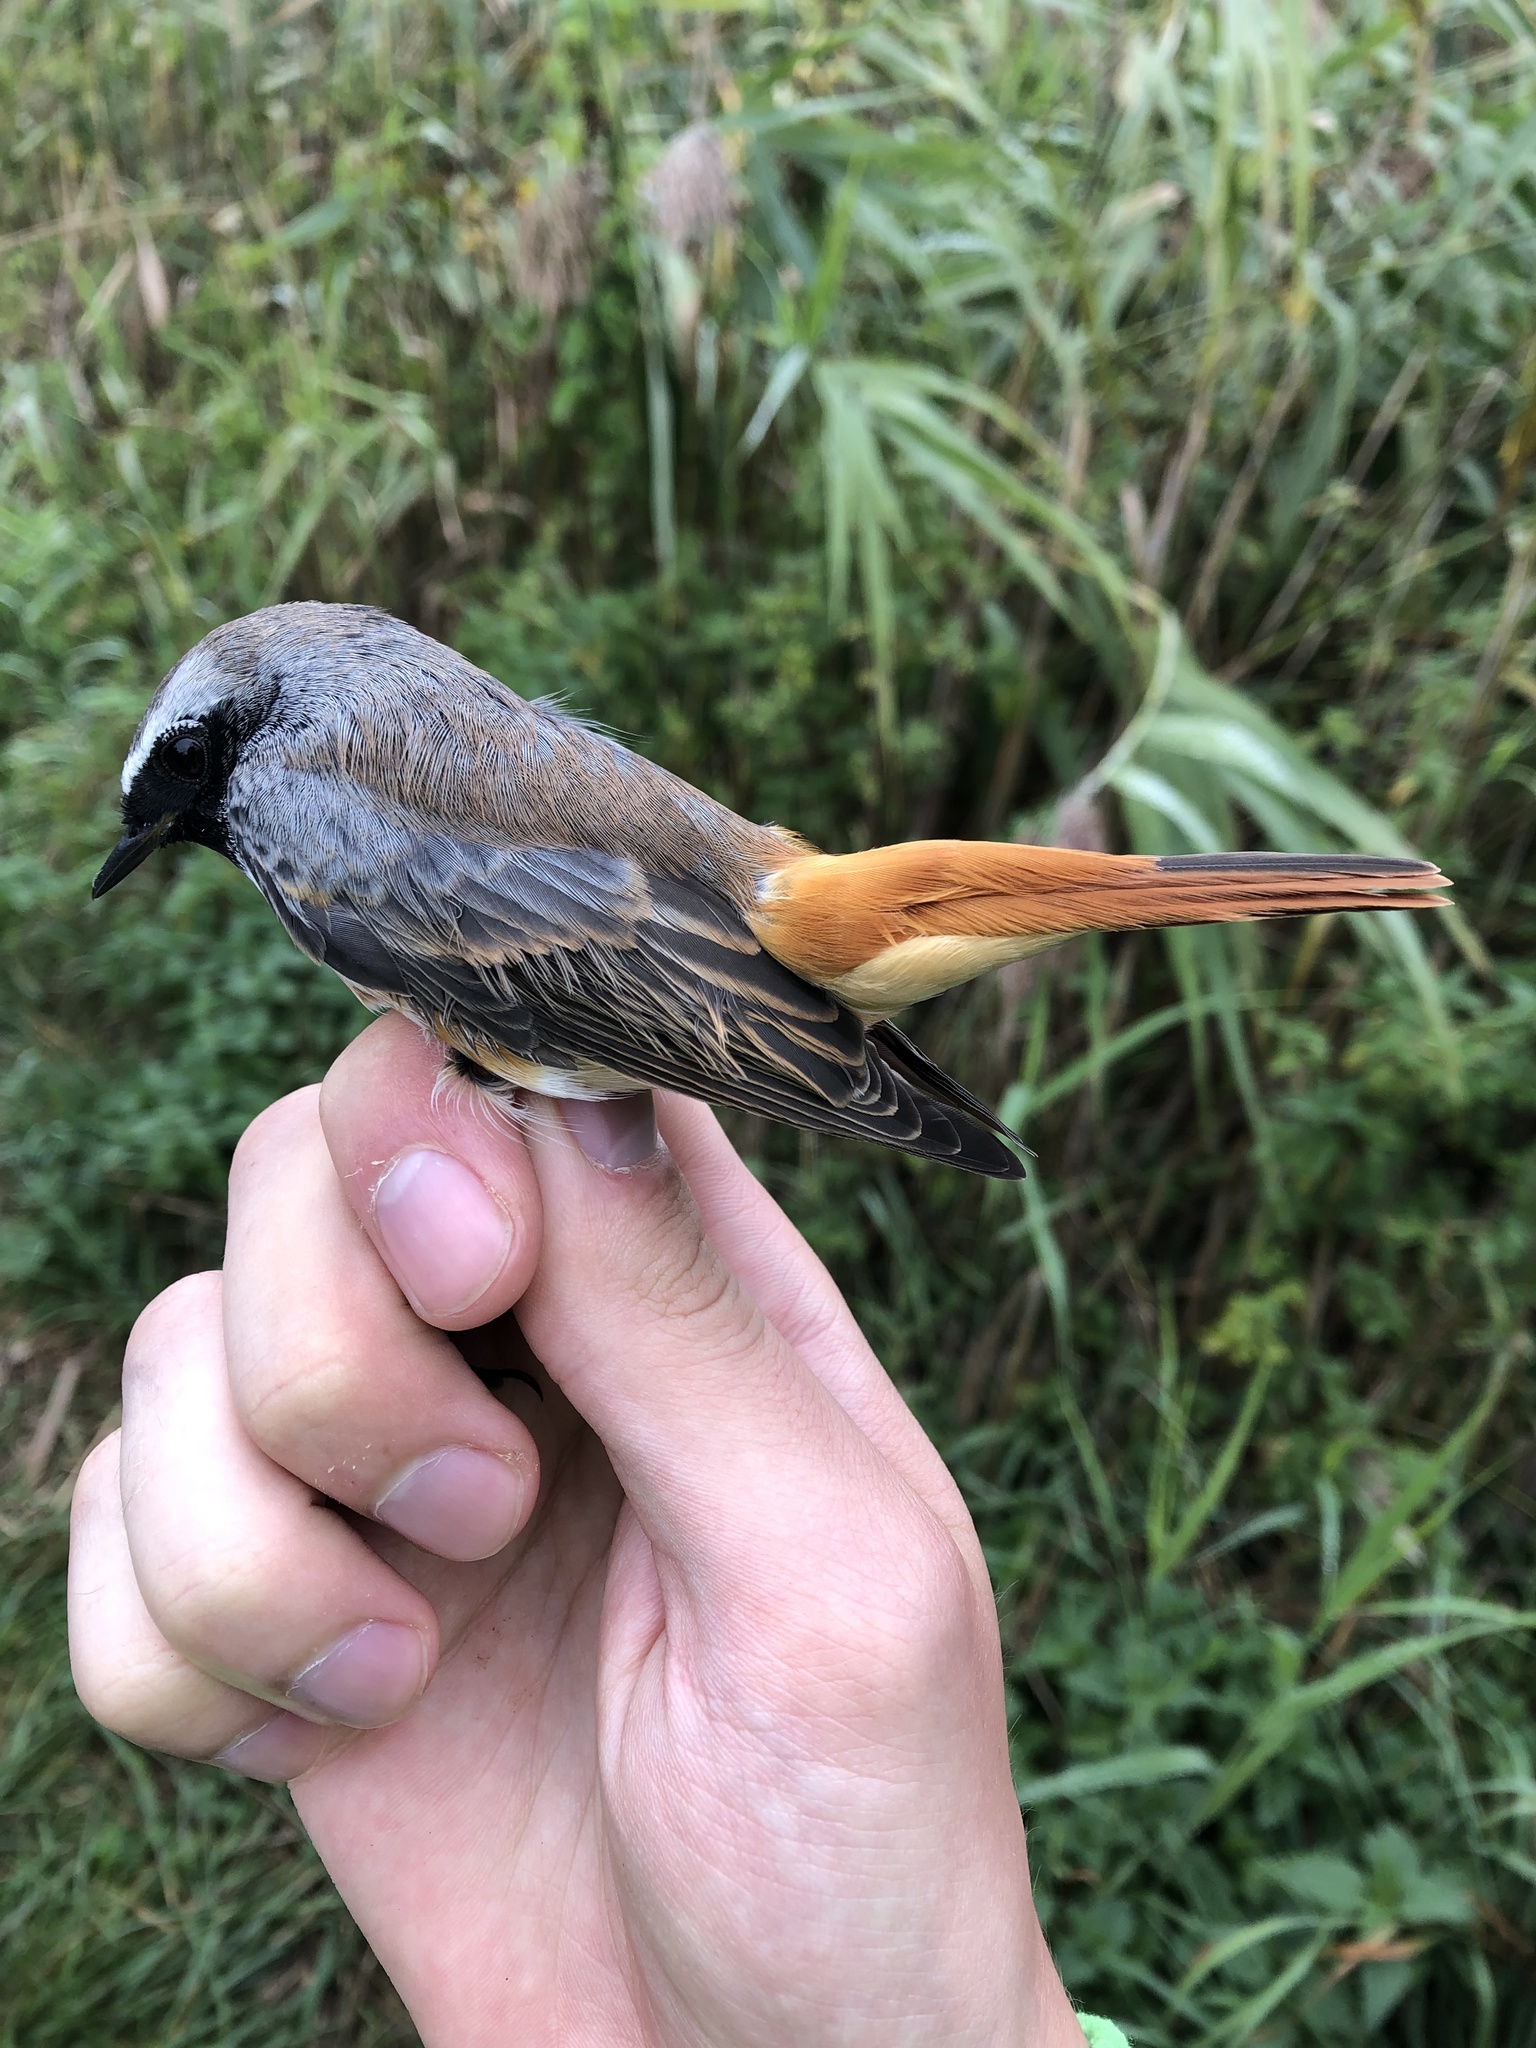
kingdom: Animalia
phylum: Chordata
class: Aves
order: Passeriformes
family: Muscicapidae
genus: Phoenicurus
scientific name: Phoenicurus phoenicurus
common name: Common redstart
